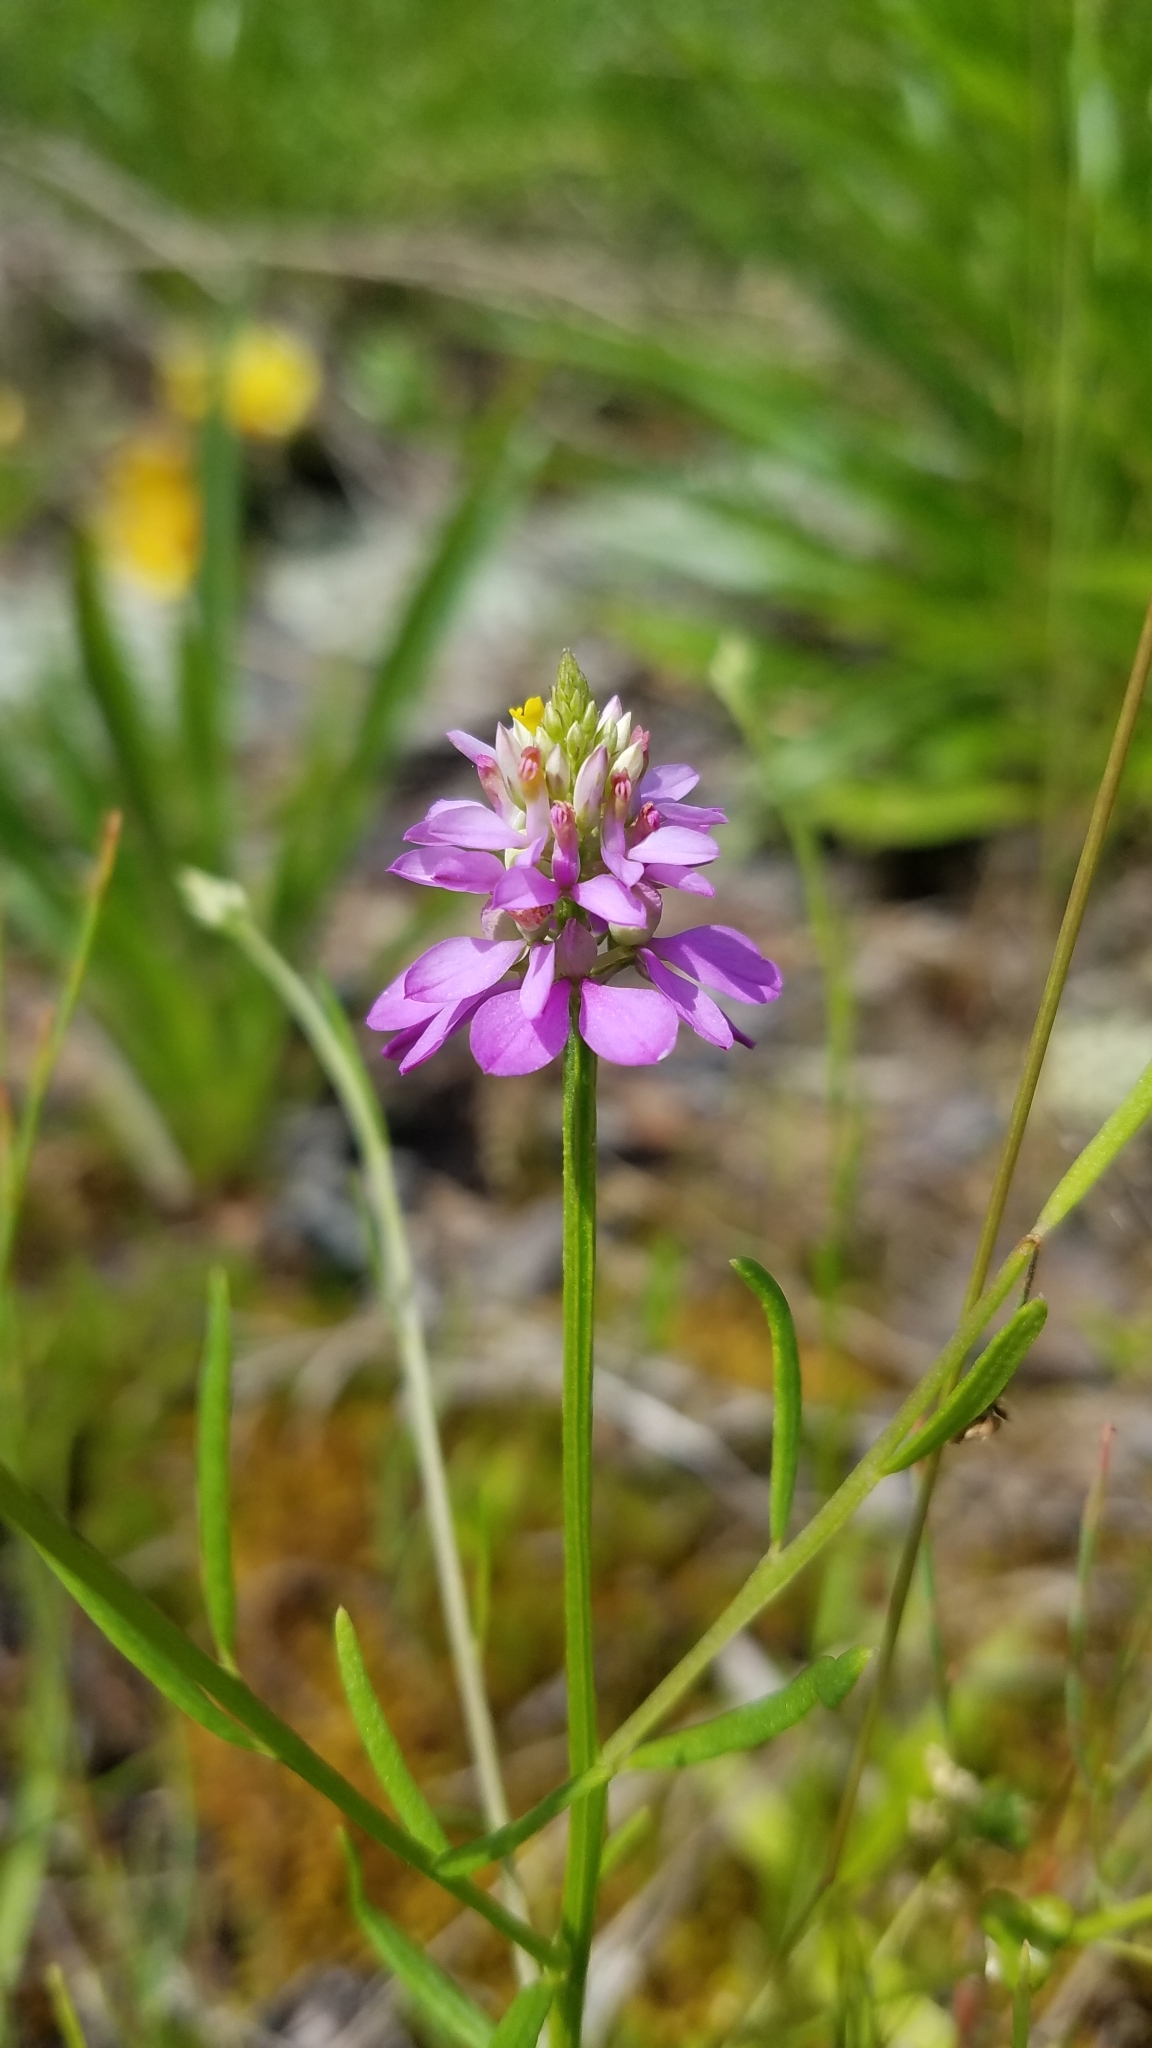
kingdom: Plantae
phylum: Tracheophyta
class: Magnoliopsida
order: Fabales
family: Polygalaceae
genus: Polygala
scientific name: Polygala curtissii
